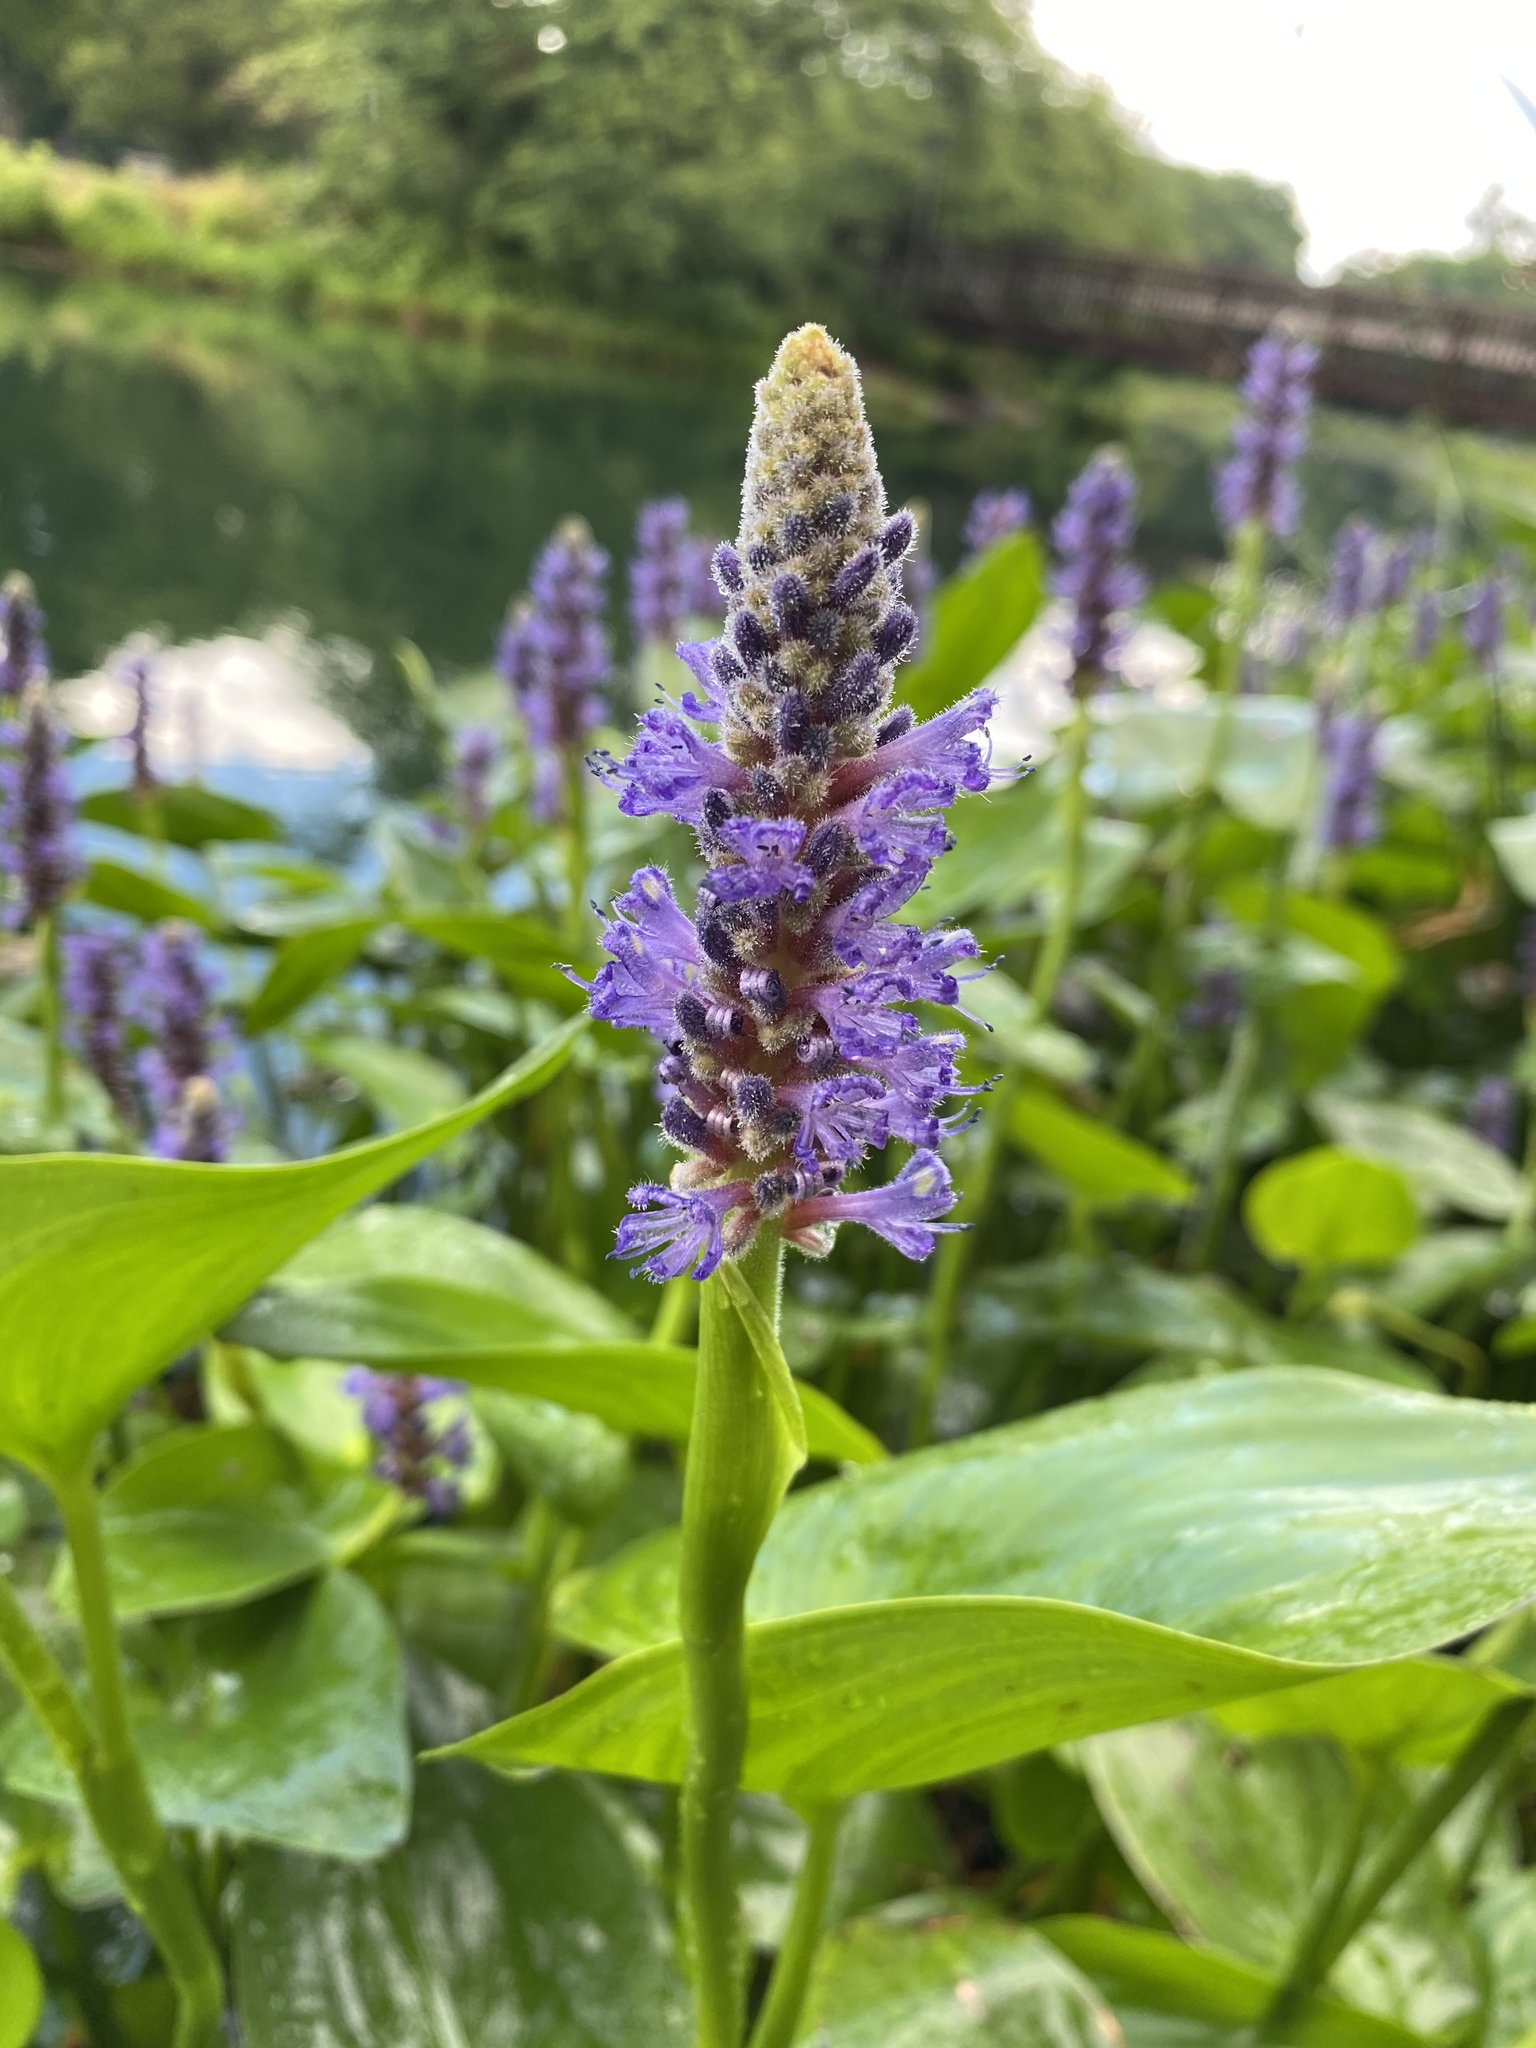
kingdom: Plantae
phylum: Tracheophyta
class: Liliopsida
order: Commelinales
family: Pontederiaceae
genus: Pontederia
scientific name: Pontederia cordata
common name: Pickerelweed
